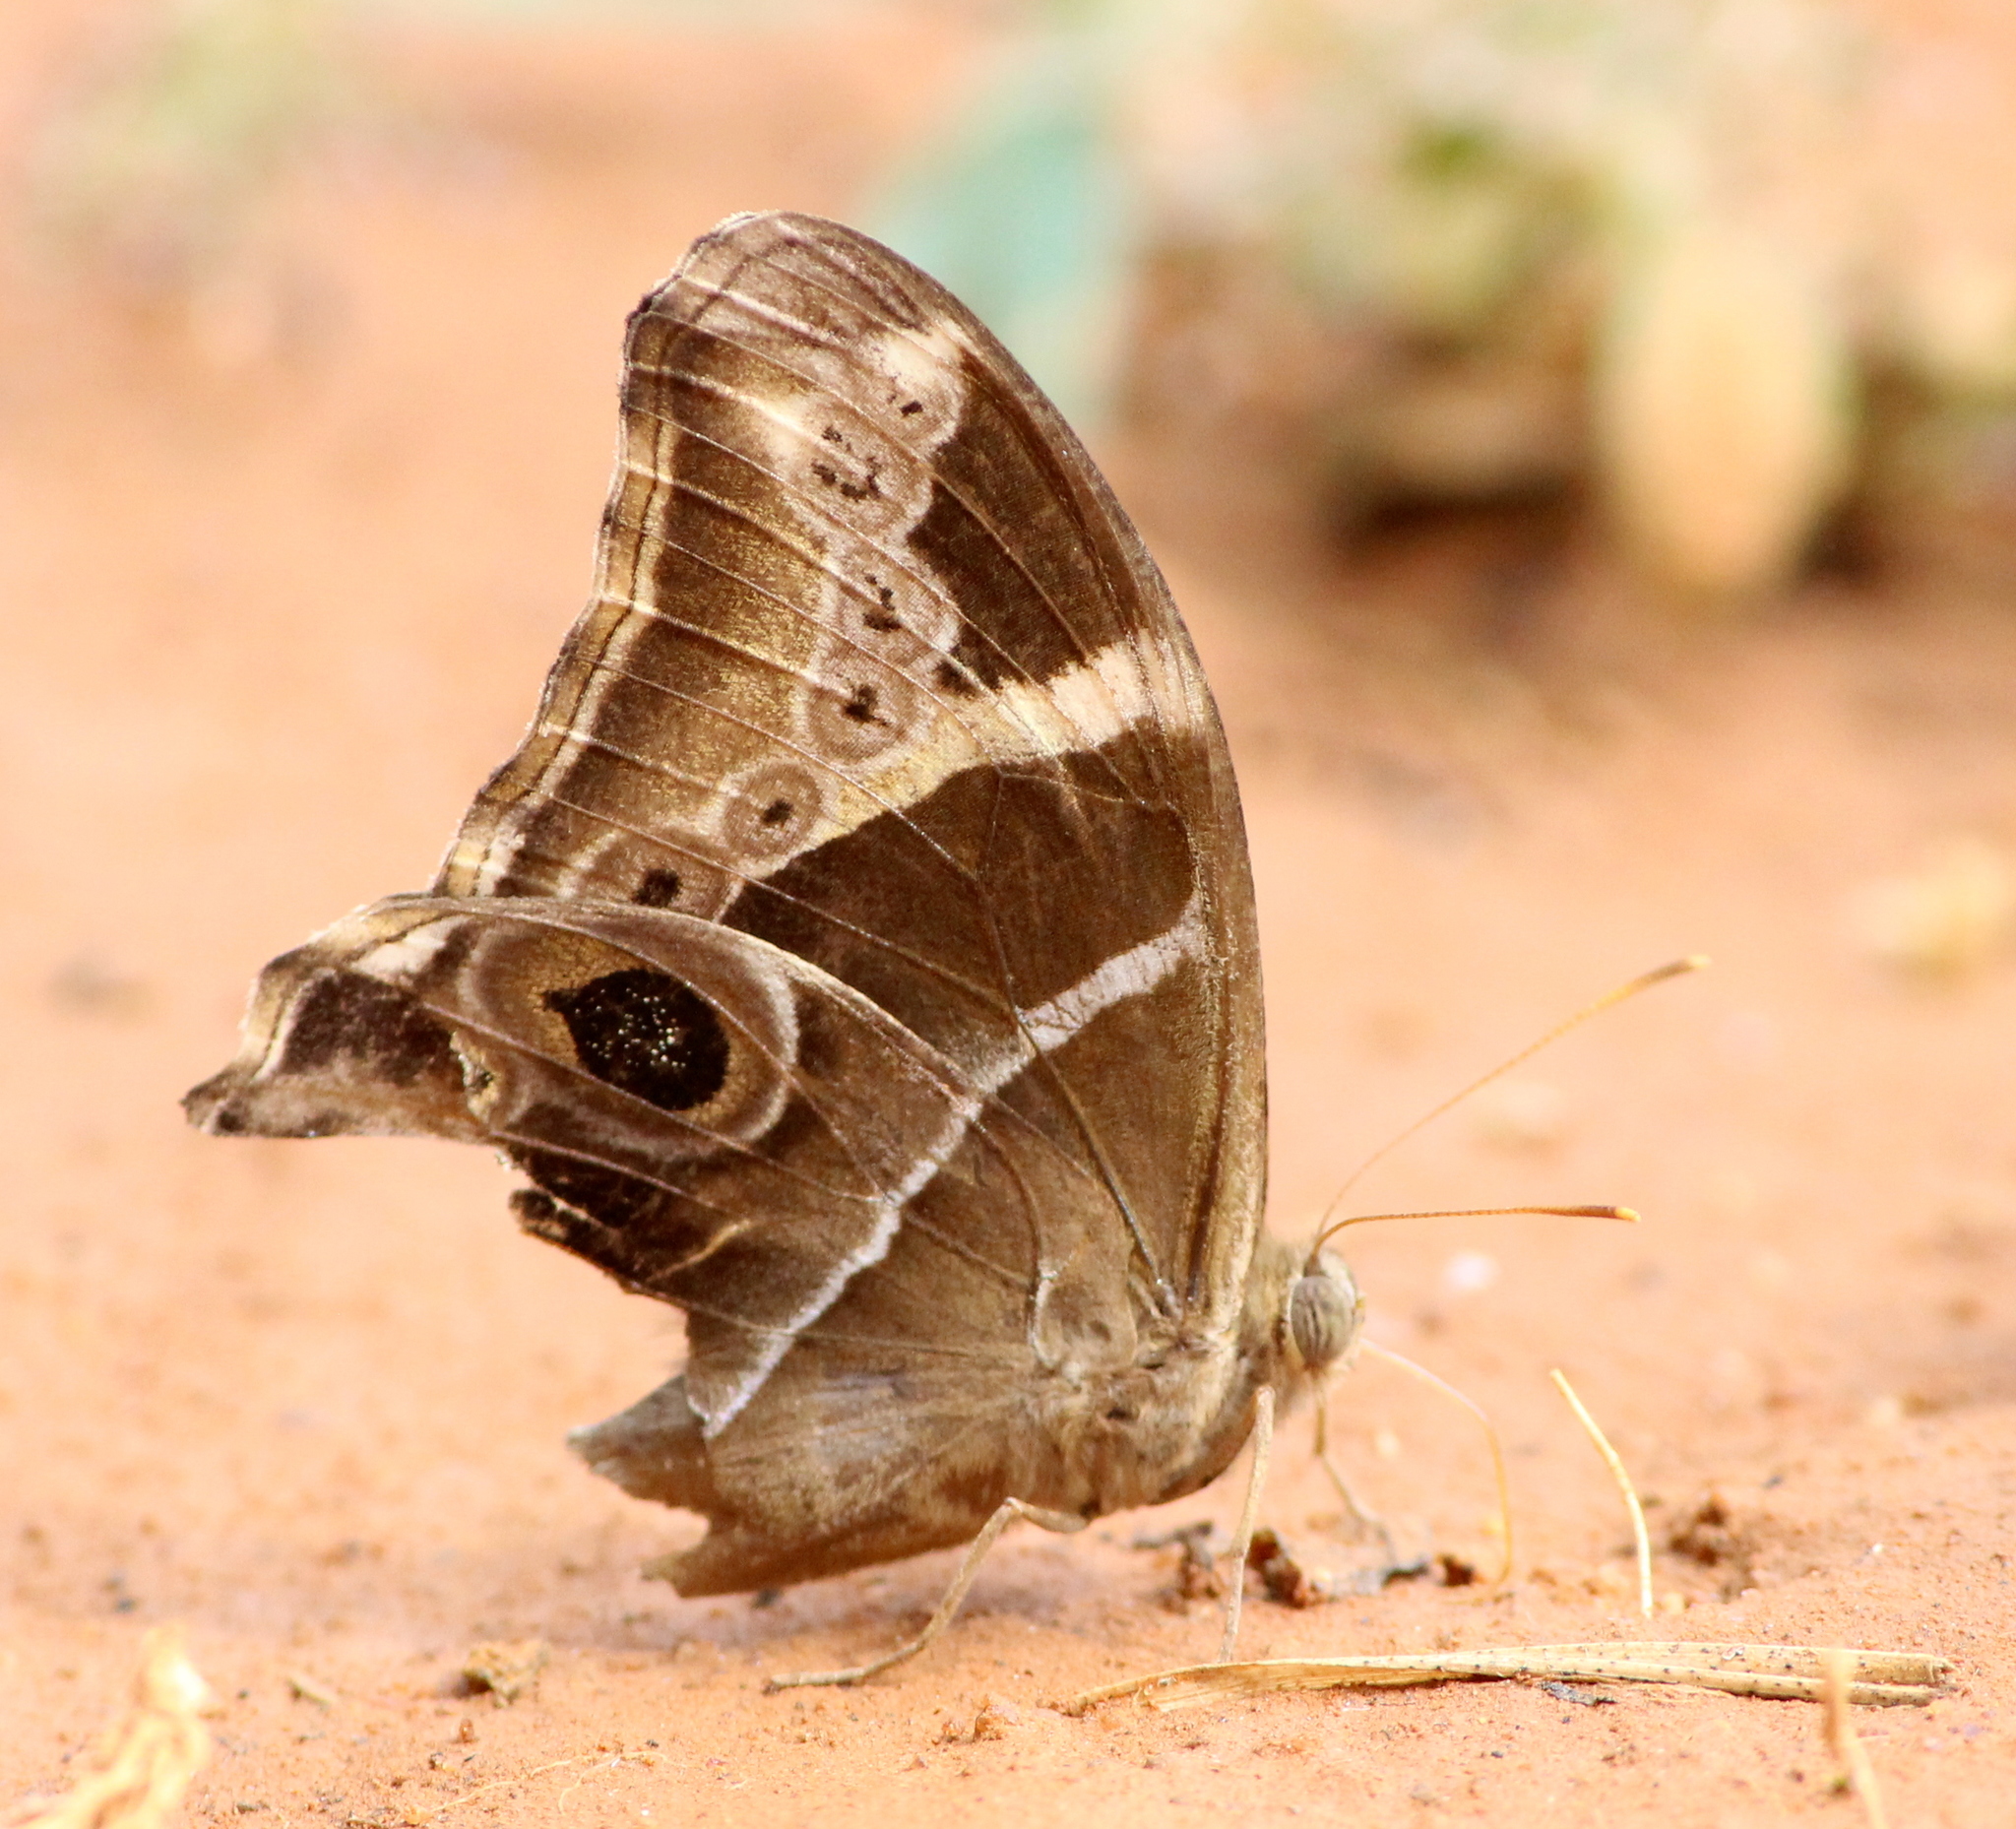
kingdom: Animalia
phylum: Arthropoda
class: Insecta
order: Lepidoptera
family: Nymphalidae
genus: Lethe
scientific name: Lethe europa
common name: Bamboo treebrown
